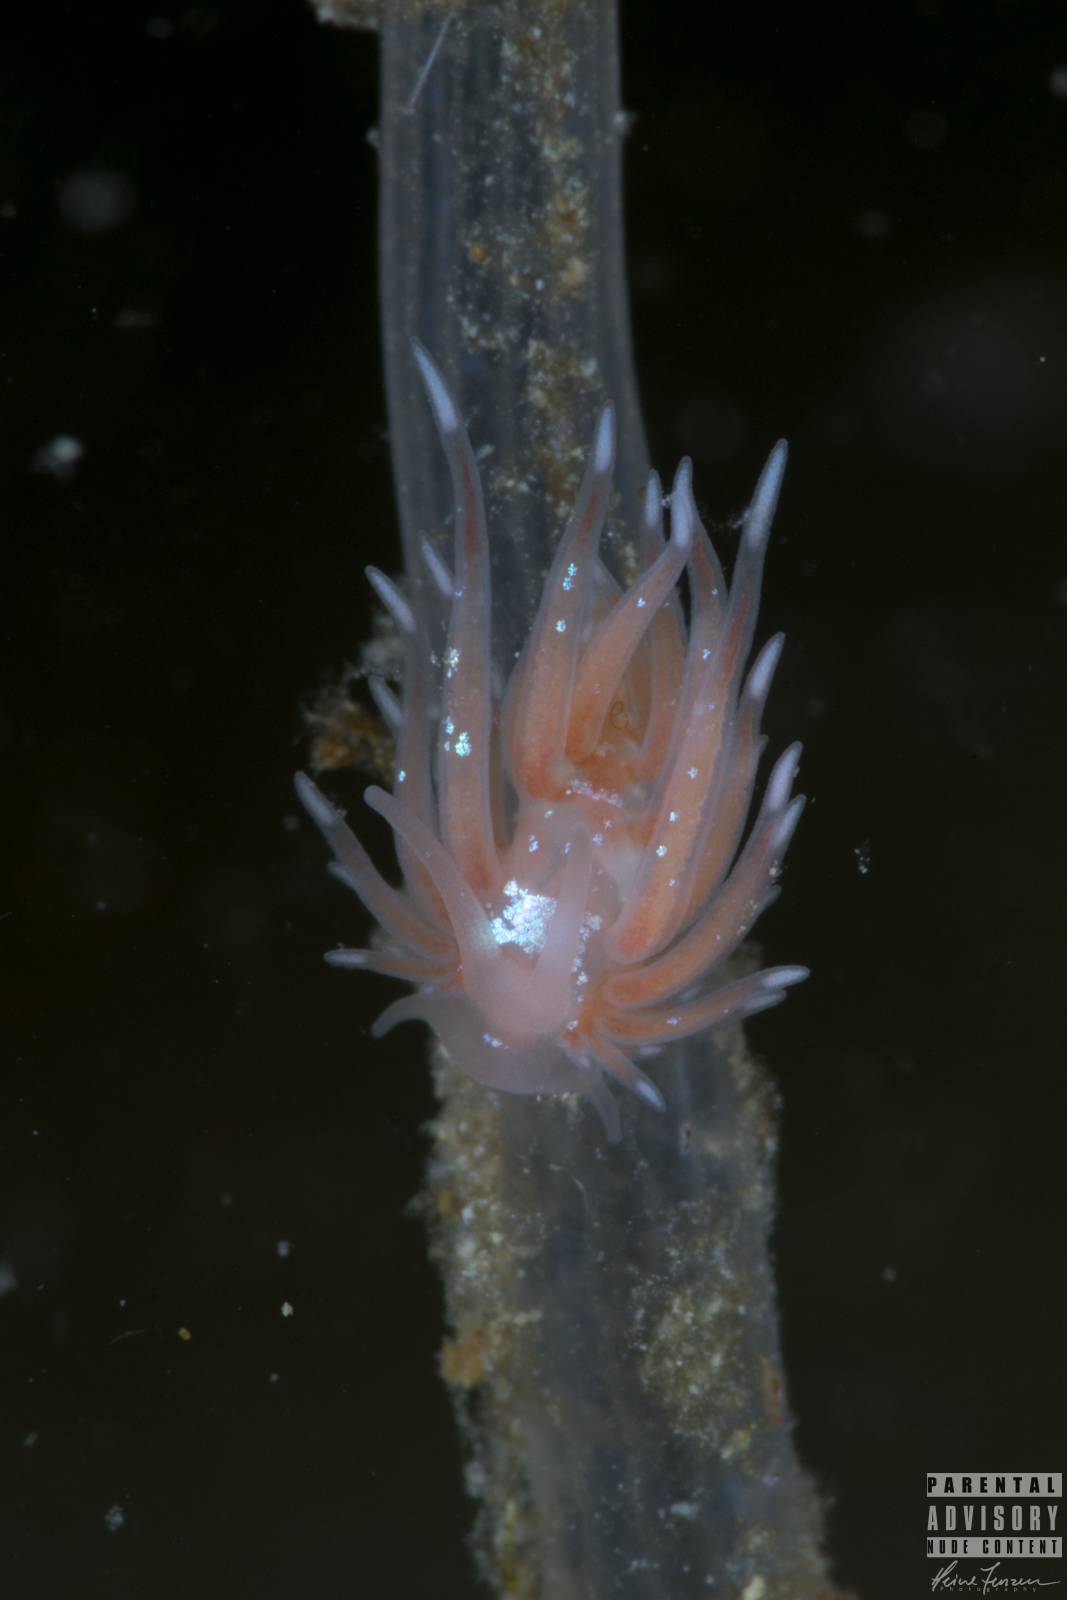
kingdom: Animalia
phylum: Mollusca
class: Gastropoda
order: Nudibranchia
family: Cumanotidae
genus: Cumanotus
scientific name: Cumanotus beaumonti
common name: Polyp aeolis
